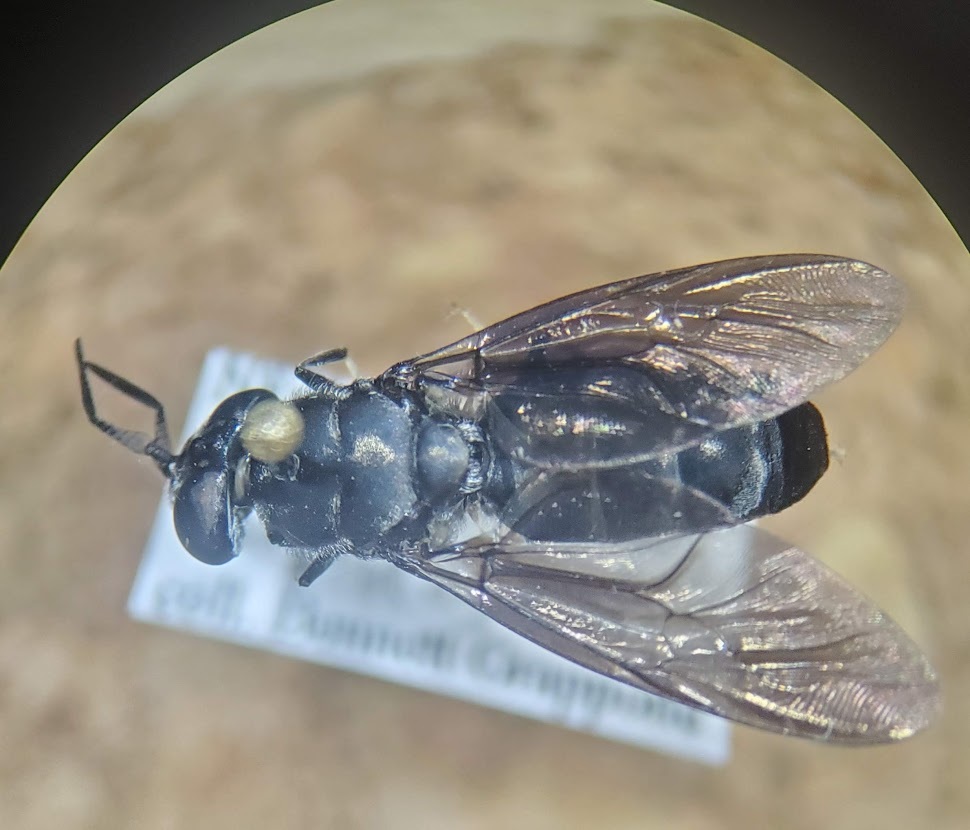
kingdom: Animalia
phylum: Arthropoda
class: Insecta
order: Diptera
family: Stratiomyidae
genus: Hermetia
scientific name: Hermetia illucens
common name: Black soldier fly
